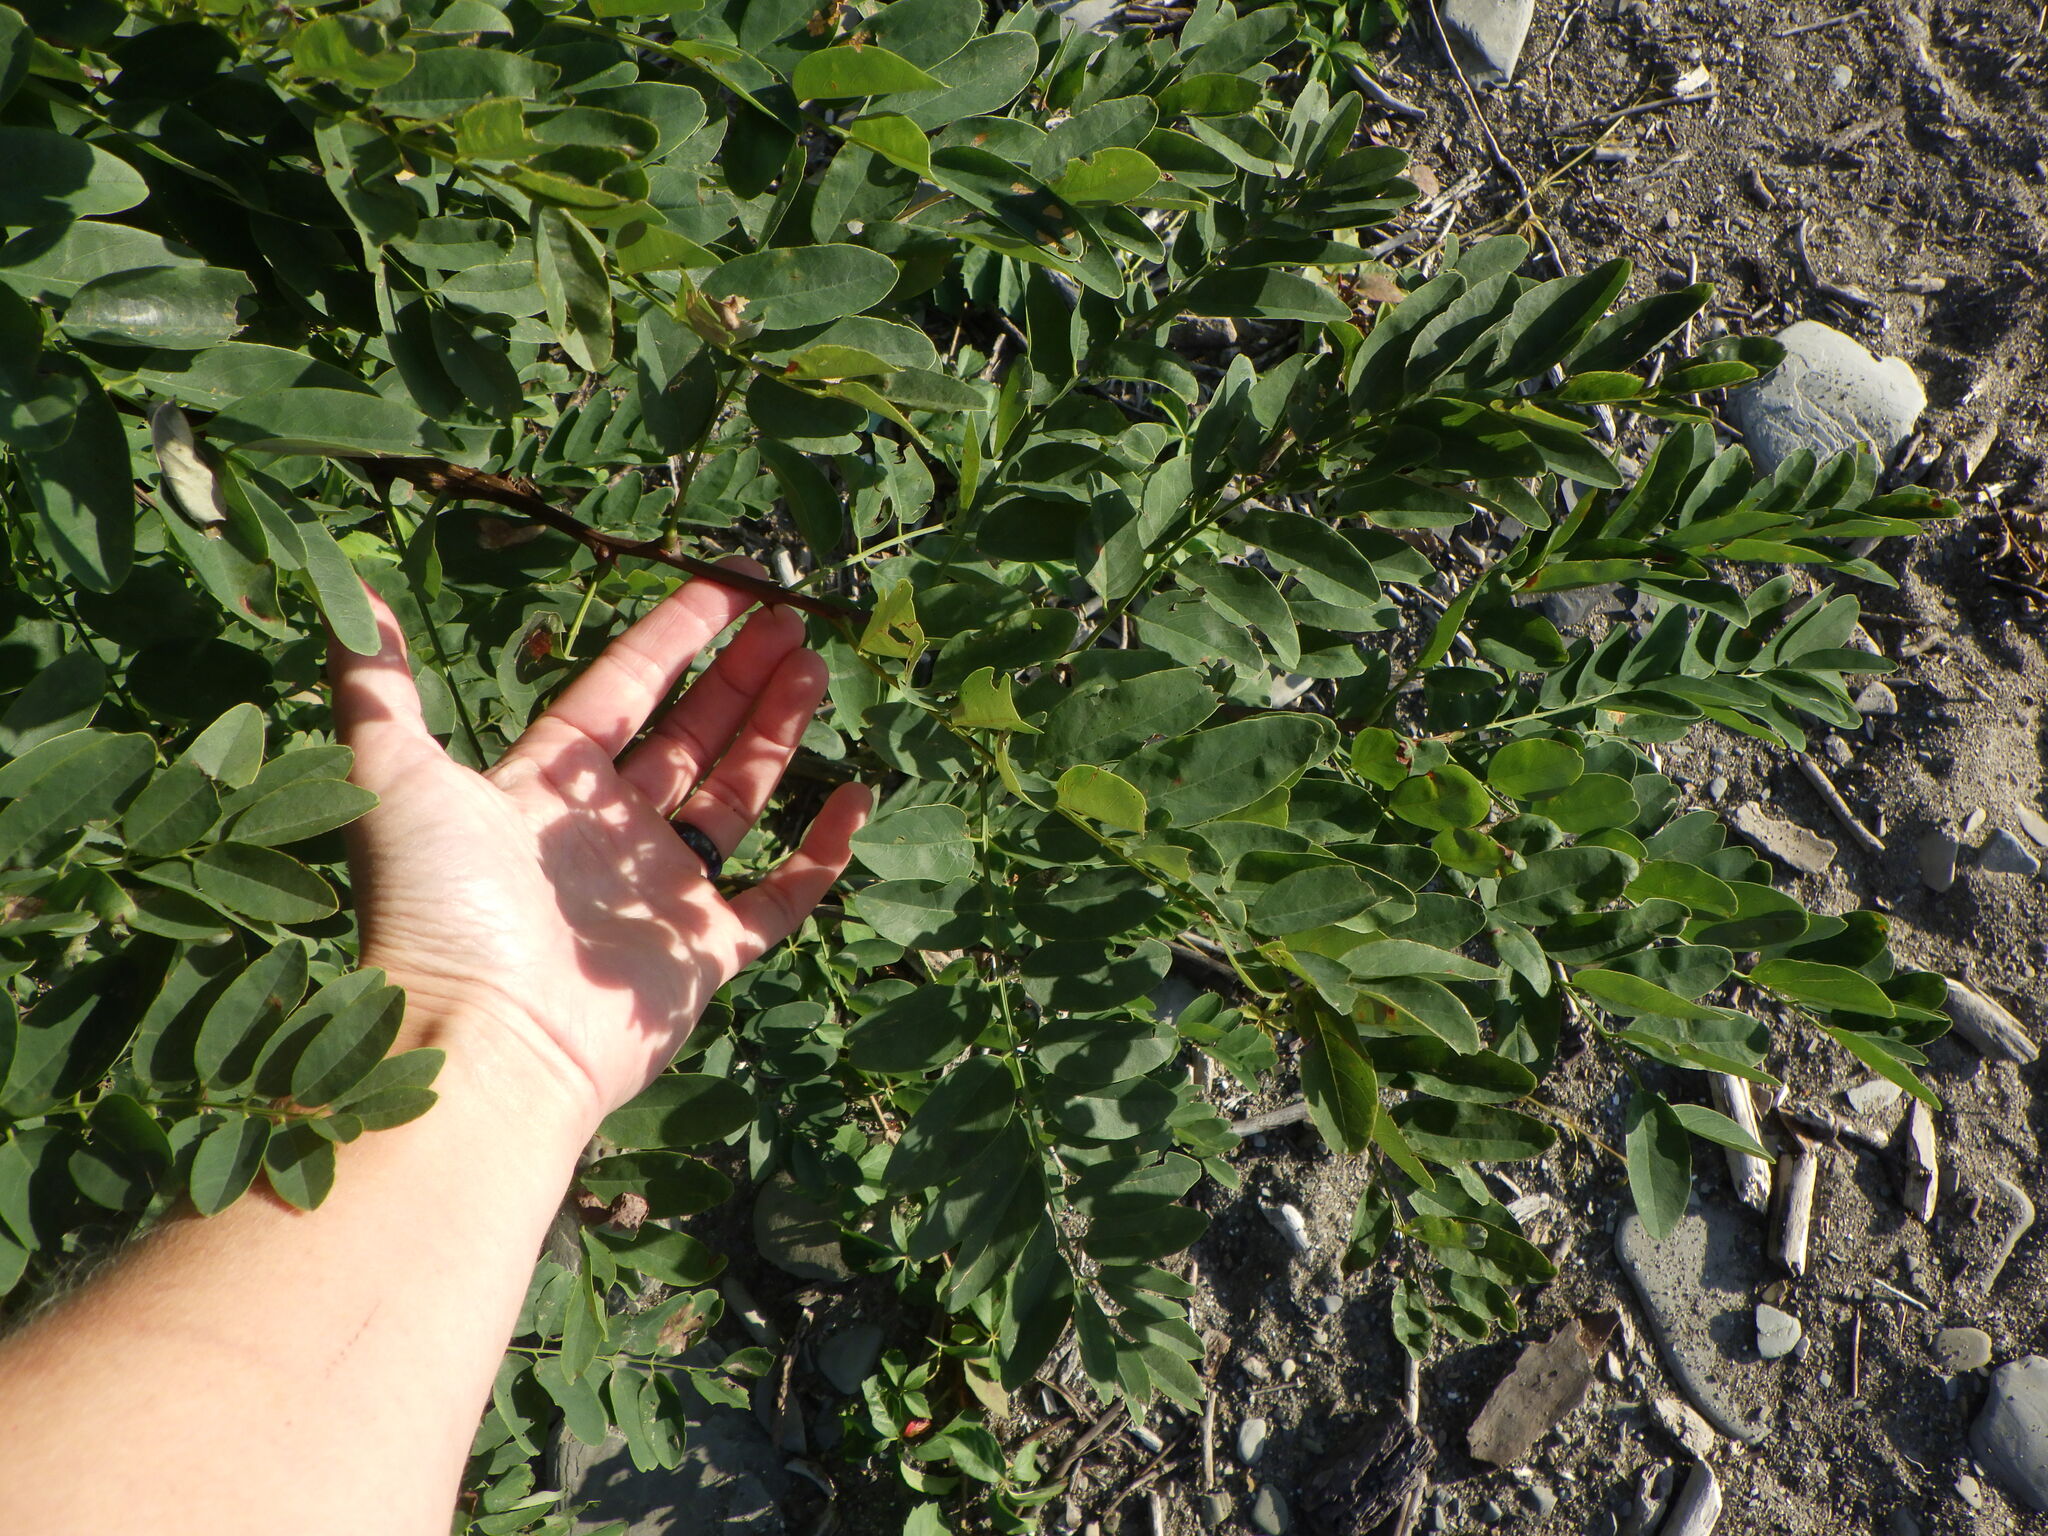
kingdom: Plantae
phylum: Tracheophyta
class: Magnoliopsida
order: Fabales
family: Fabaceae
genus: Robinia
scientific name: Robinia pseudoacacia
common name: Black locust
